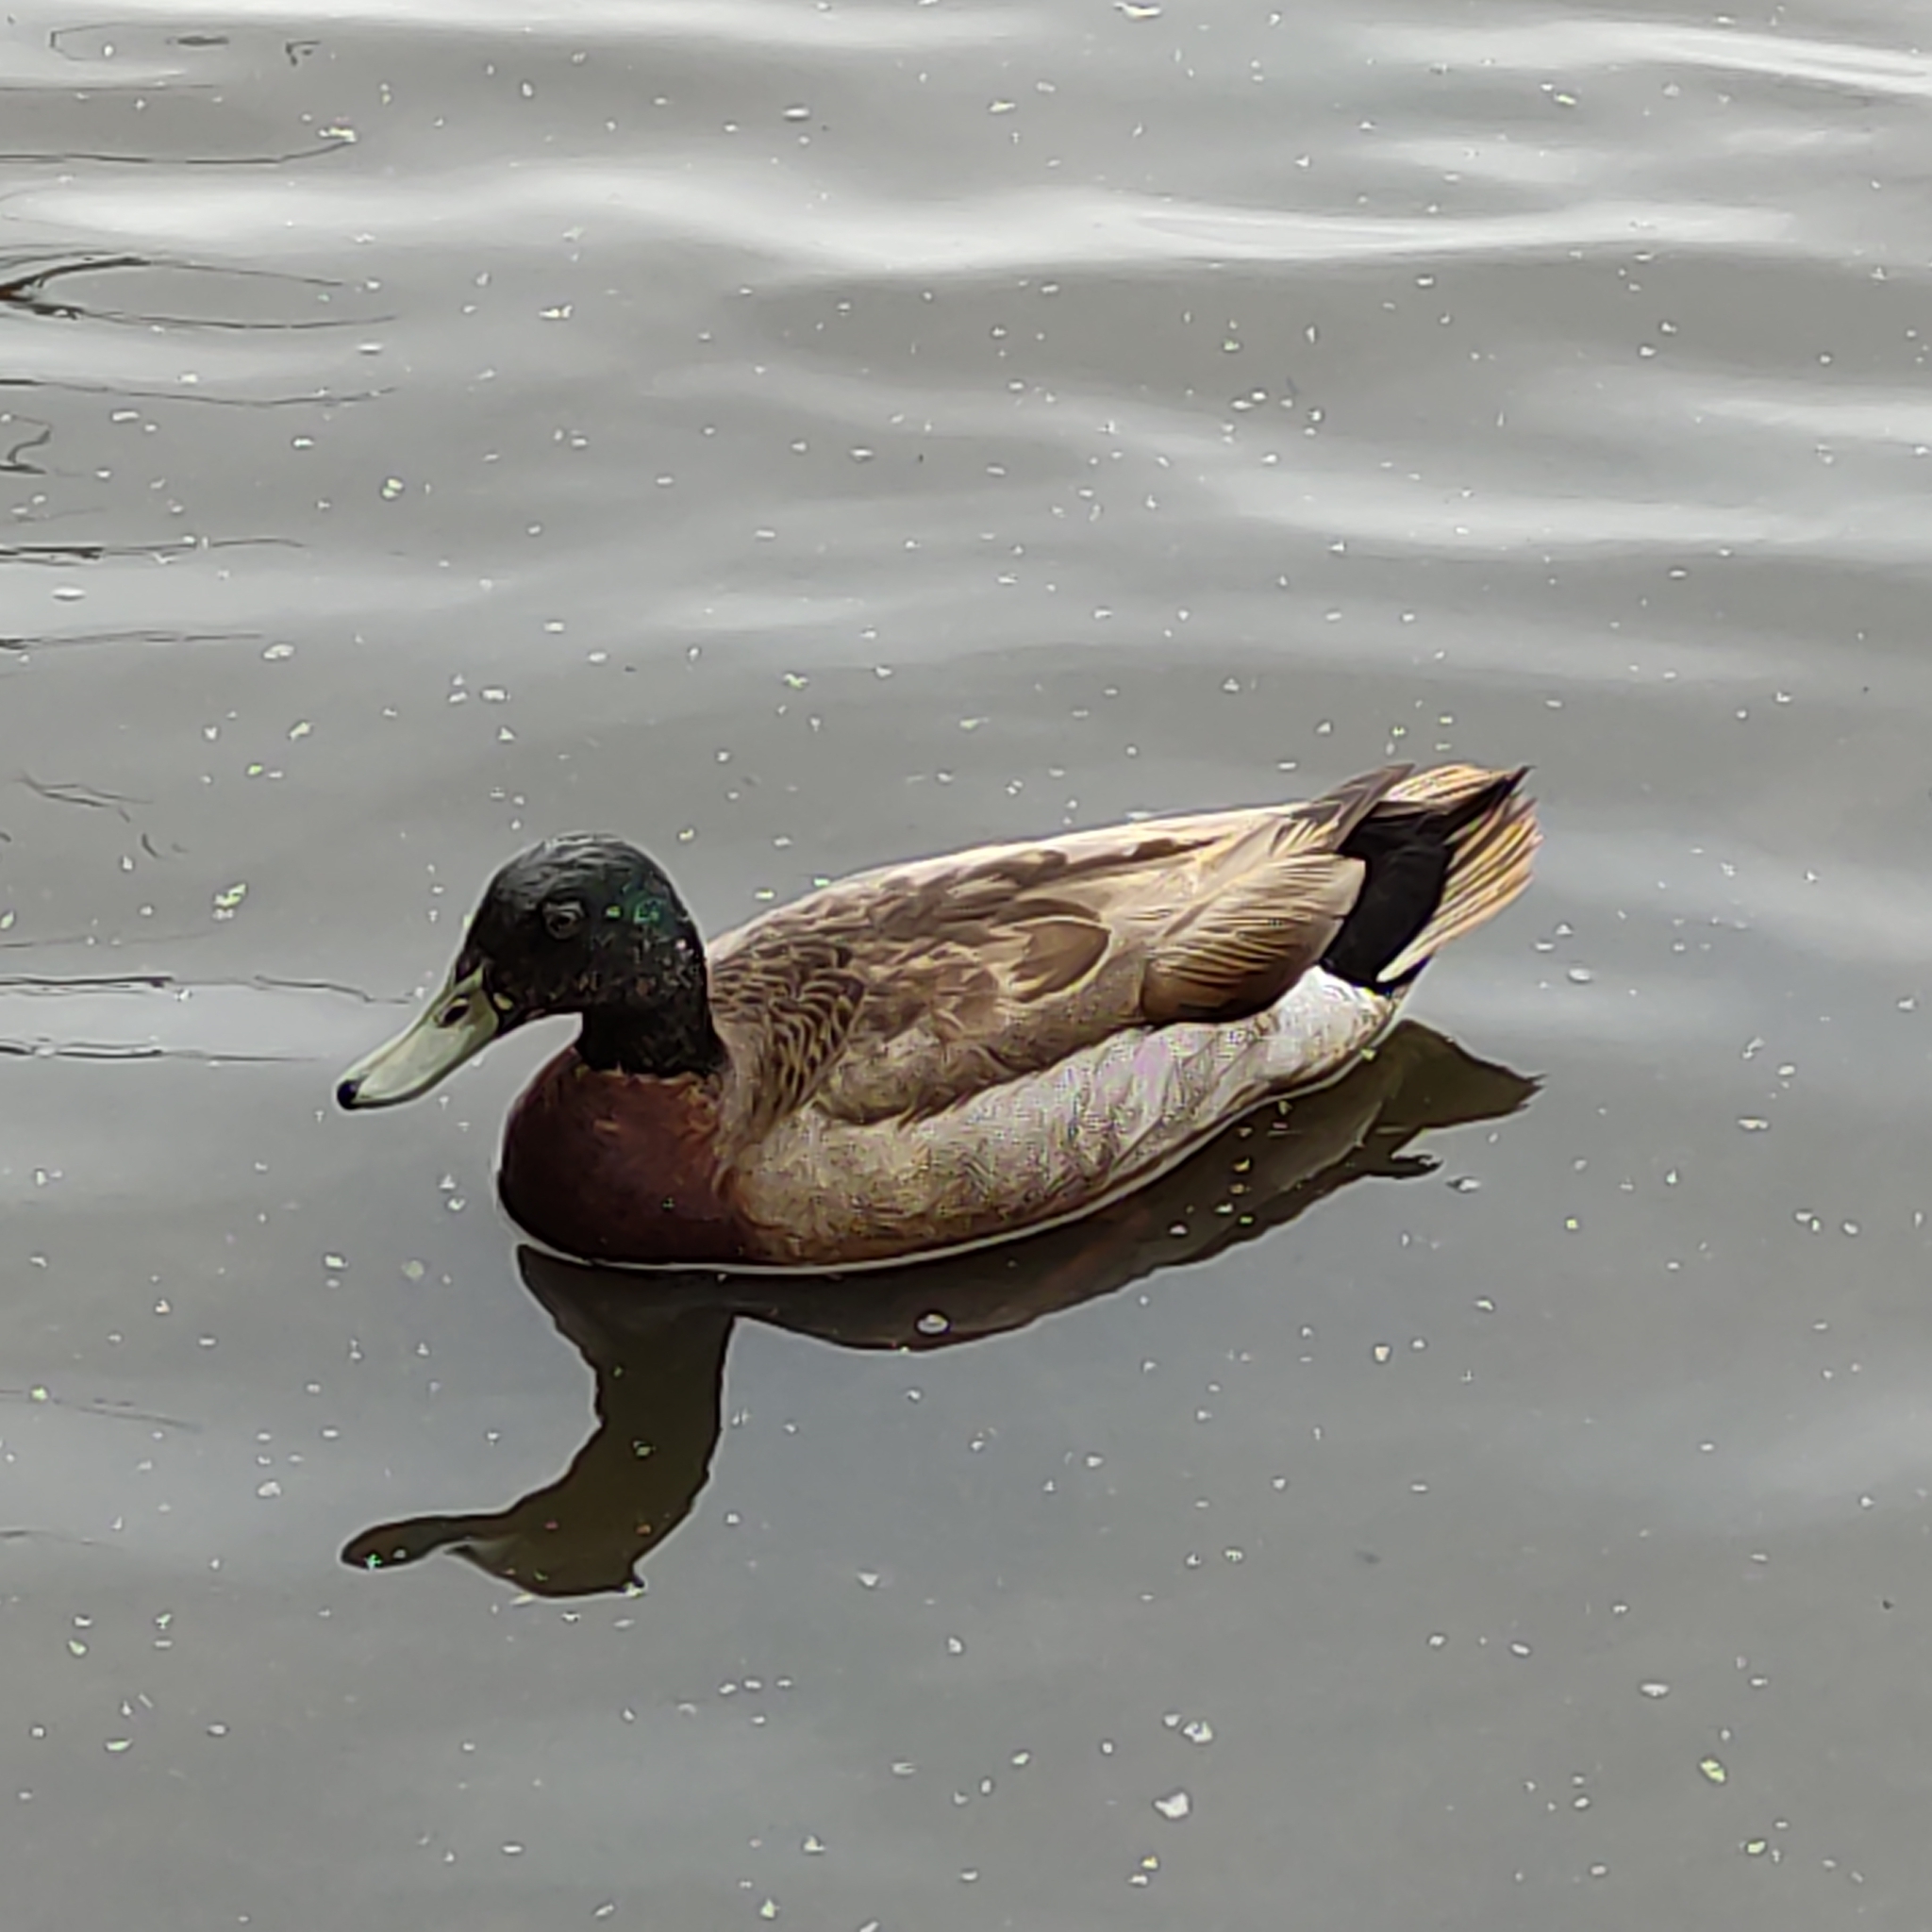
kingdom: Animalia
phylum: Chordata
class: Aves
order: Anseriformes
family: Anatidae
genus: Anas
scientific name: Anas platyrhynchos
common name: Mallard
